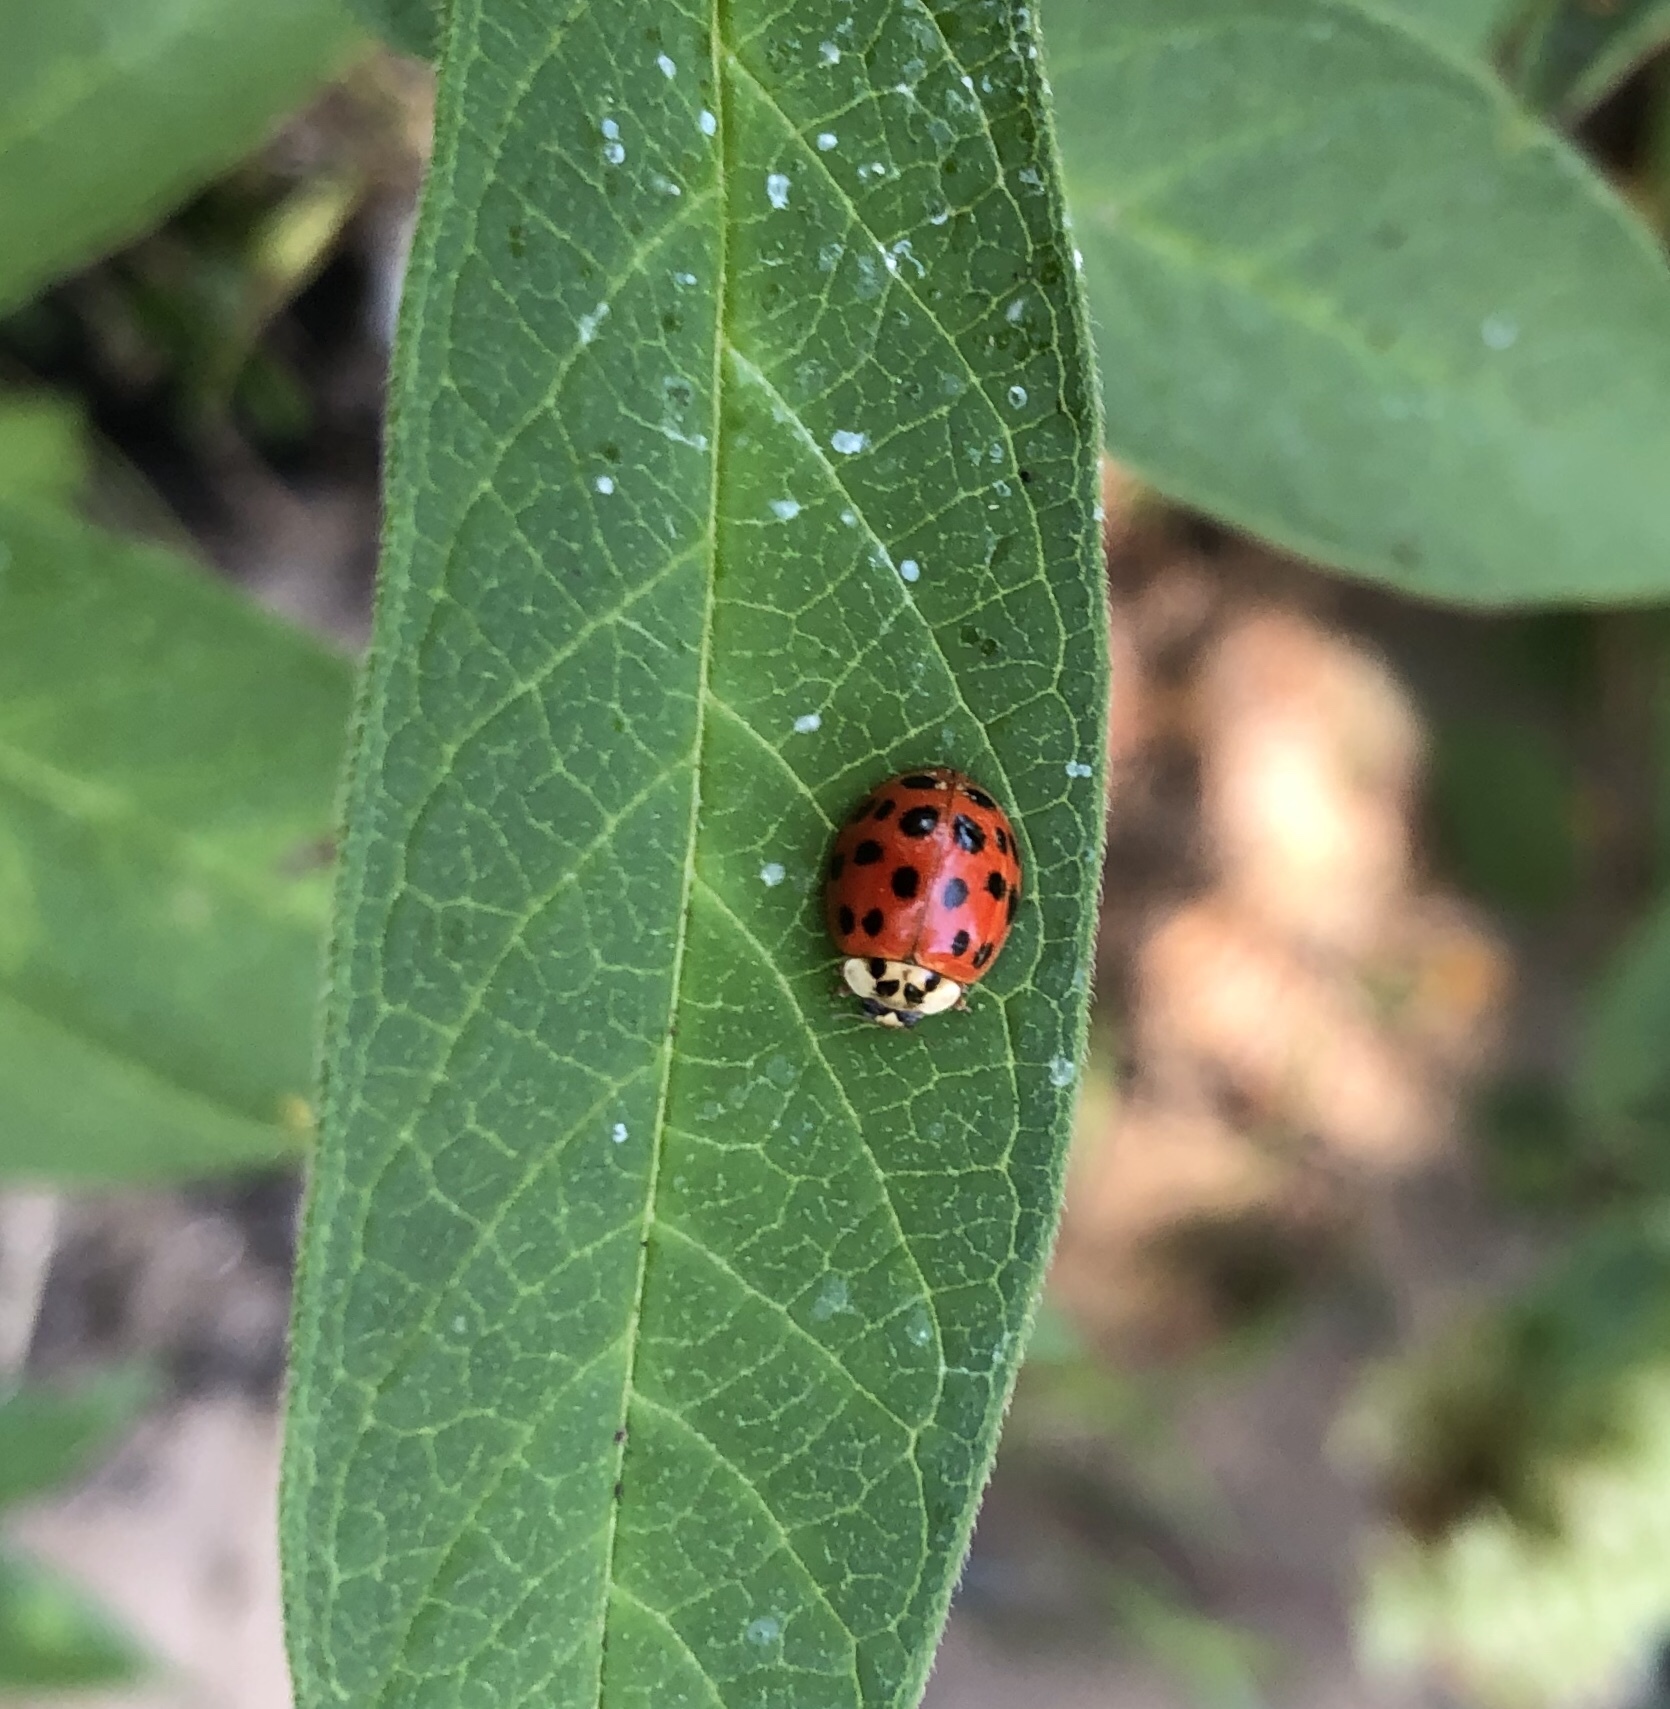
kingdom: Animalia
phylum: Arthropoda
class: Insecta
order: Coleoptera
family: Coccinellidae
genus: Harmonia
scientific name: Harmonia axyridis
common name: Harlequin ladybird
